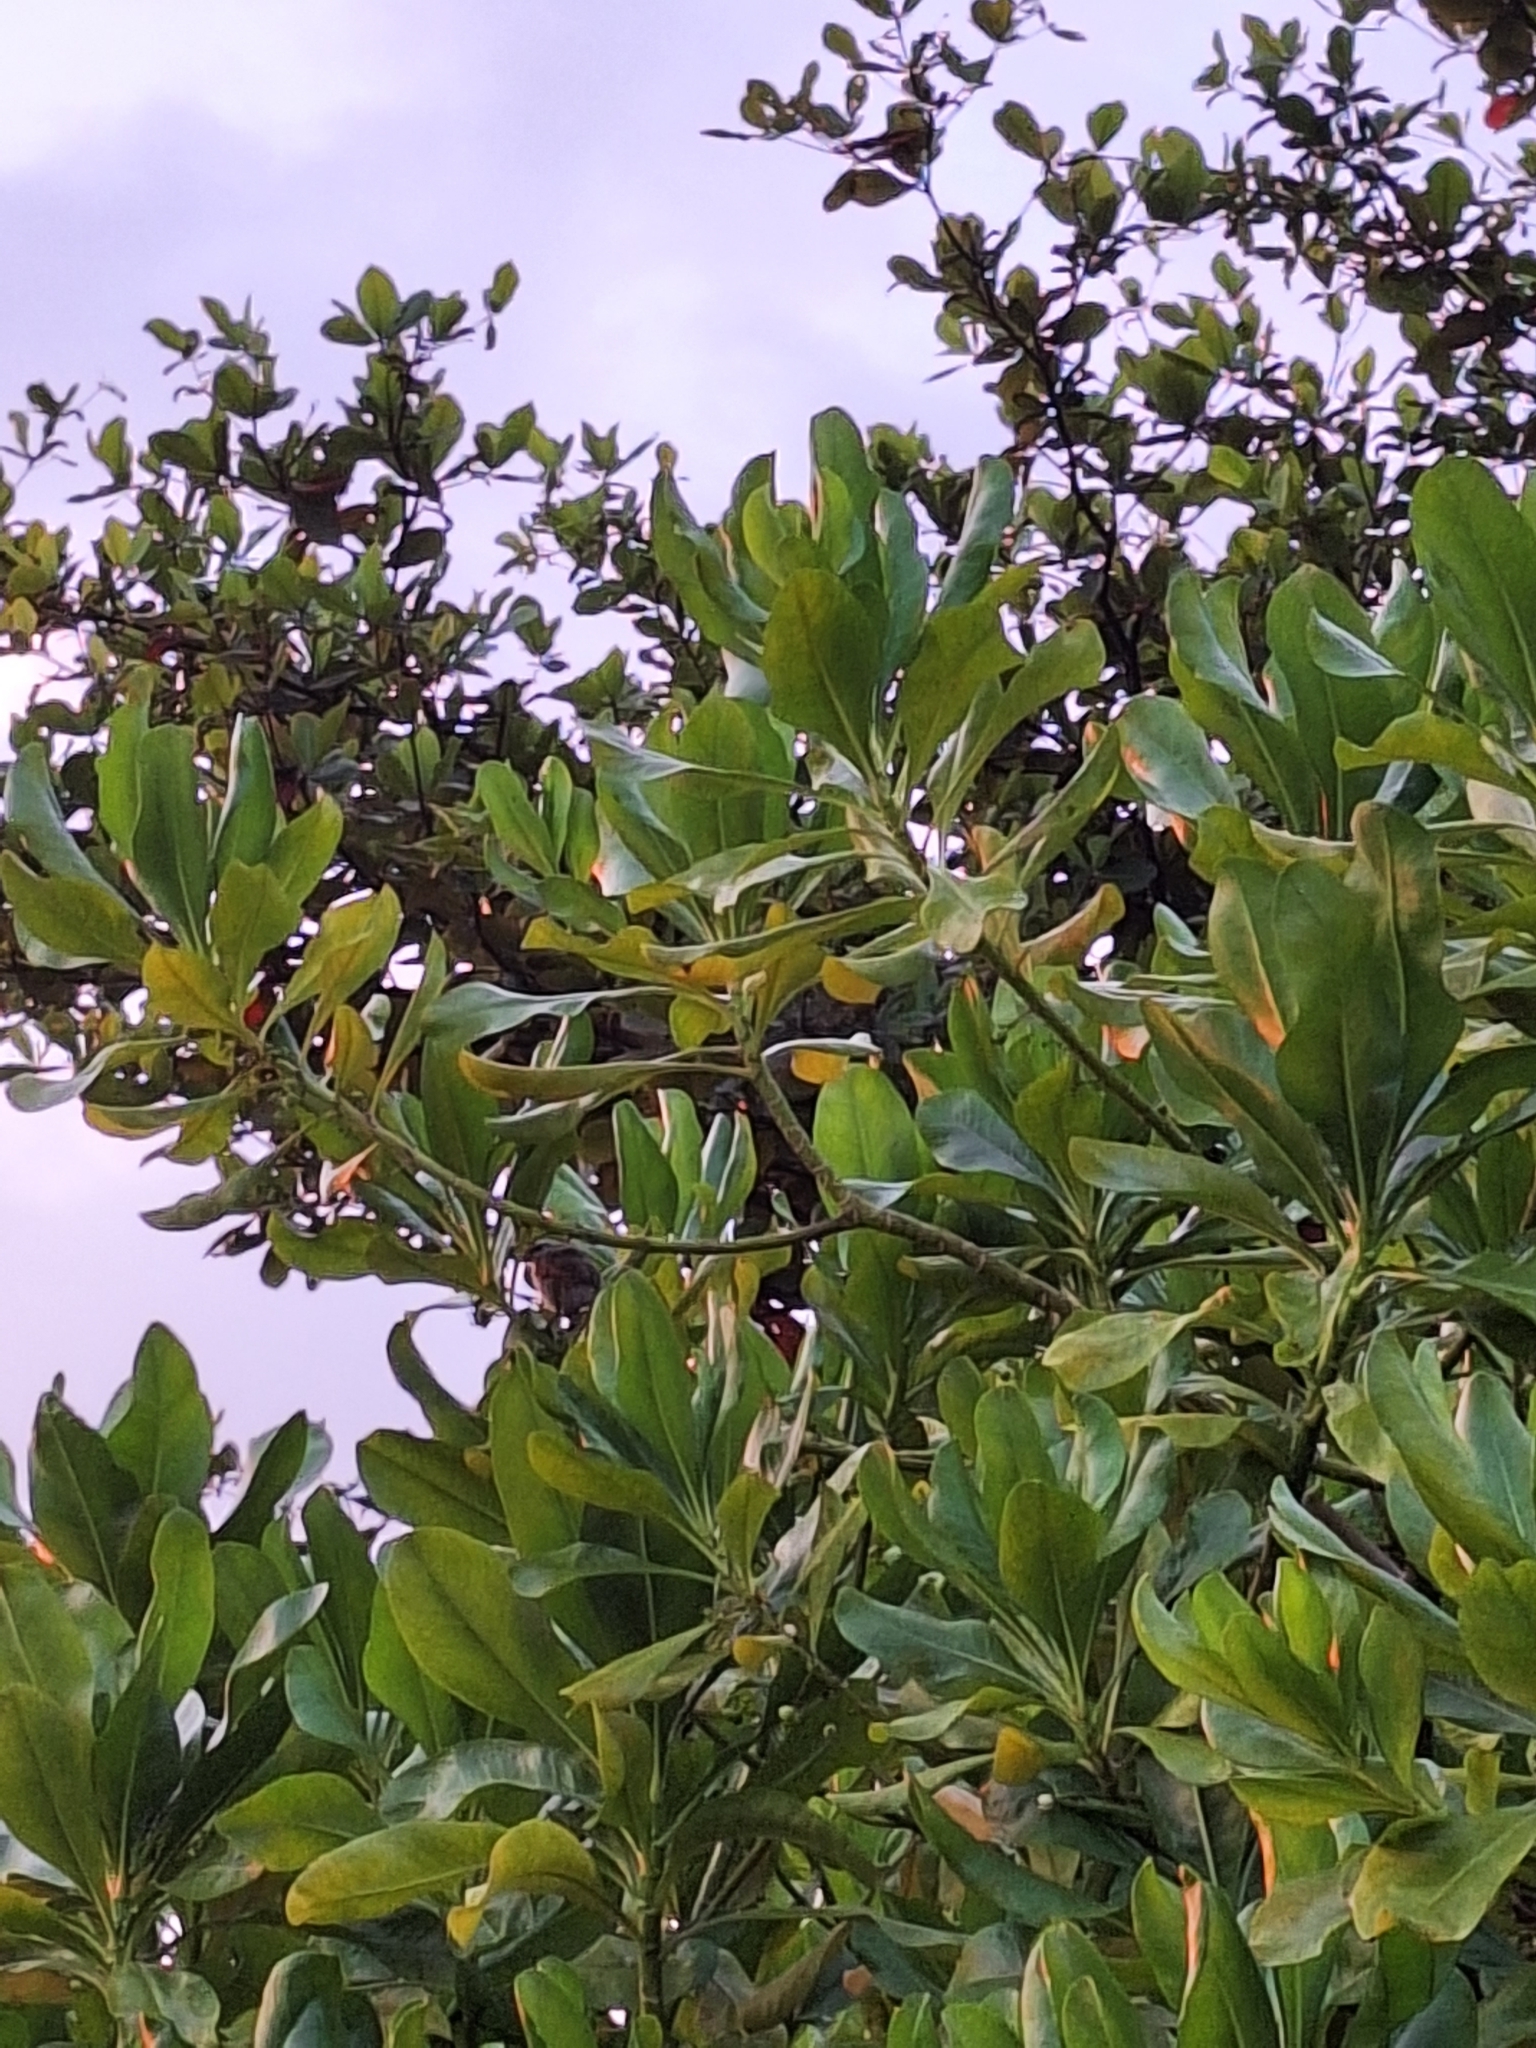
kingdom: Animalia
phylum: Chordata
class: Aves
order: Passeriformes
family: Pycnonotidae
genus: Pycnonotus
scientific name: Pycnonotus goiavier
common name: Yellow-vented bulbul
